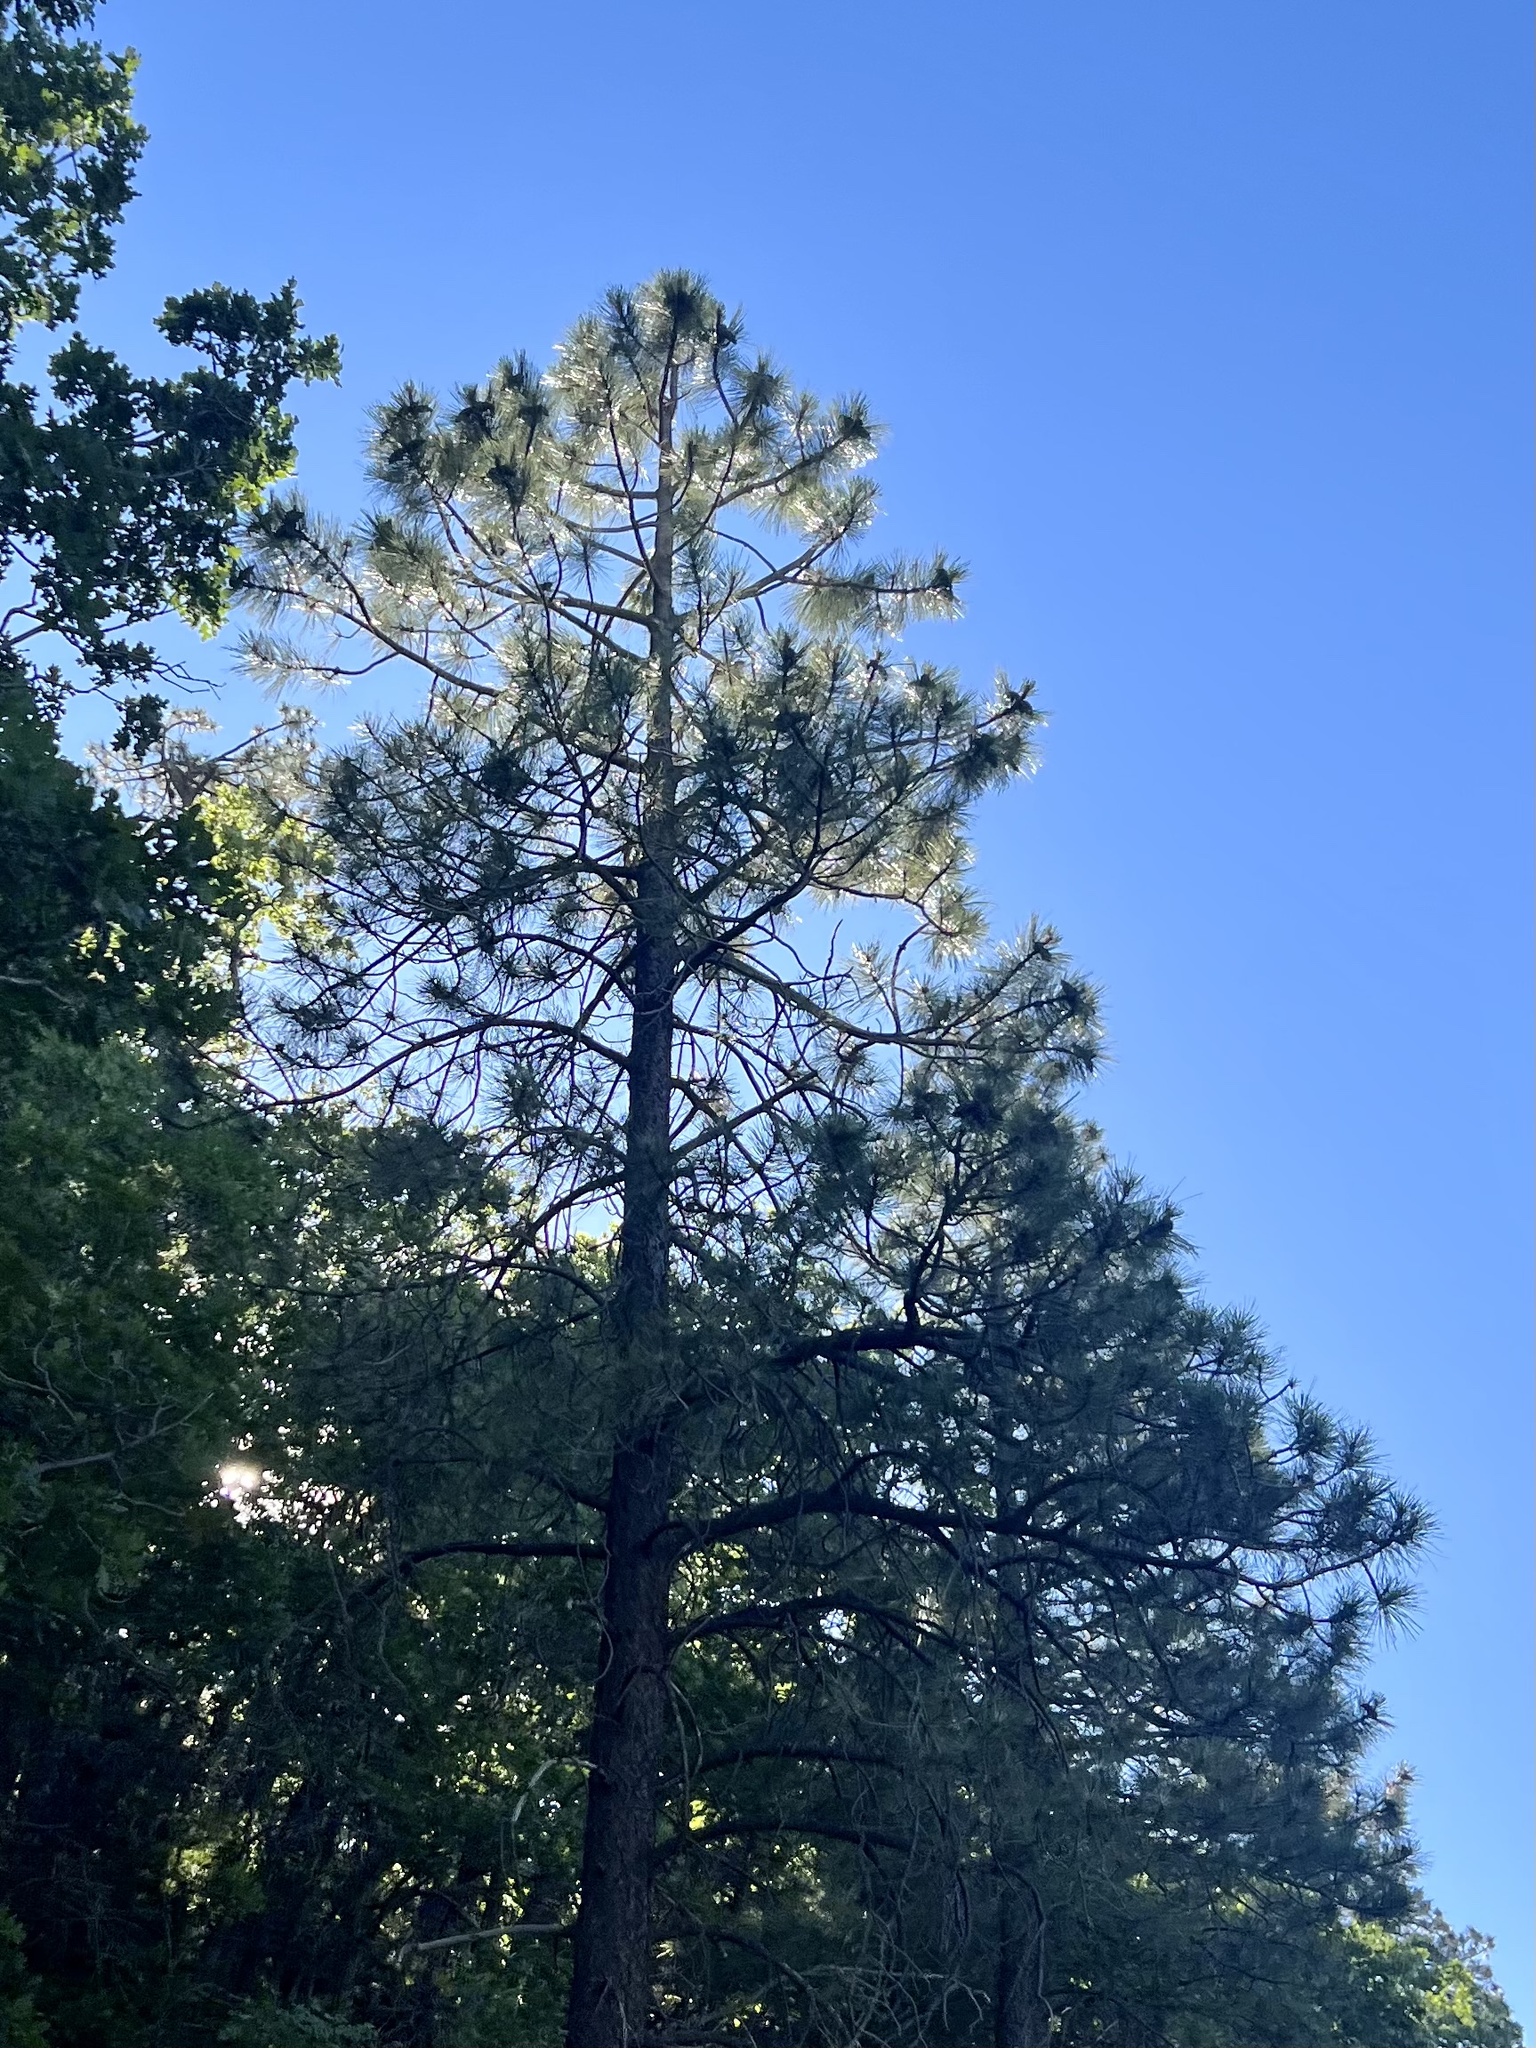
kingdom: Plantae
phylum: Tracheophyta
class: Pinopsida
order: Pinales
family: Pinaceae
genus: Pinus
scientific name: Pinus ponderosa
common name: Western yellow-pine
